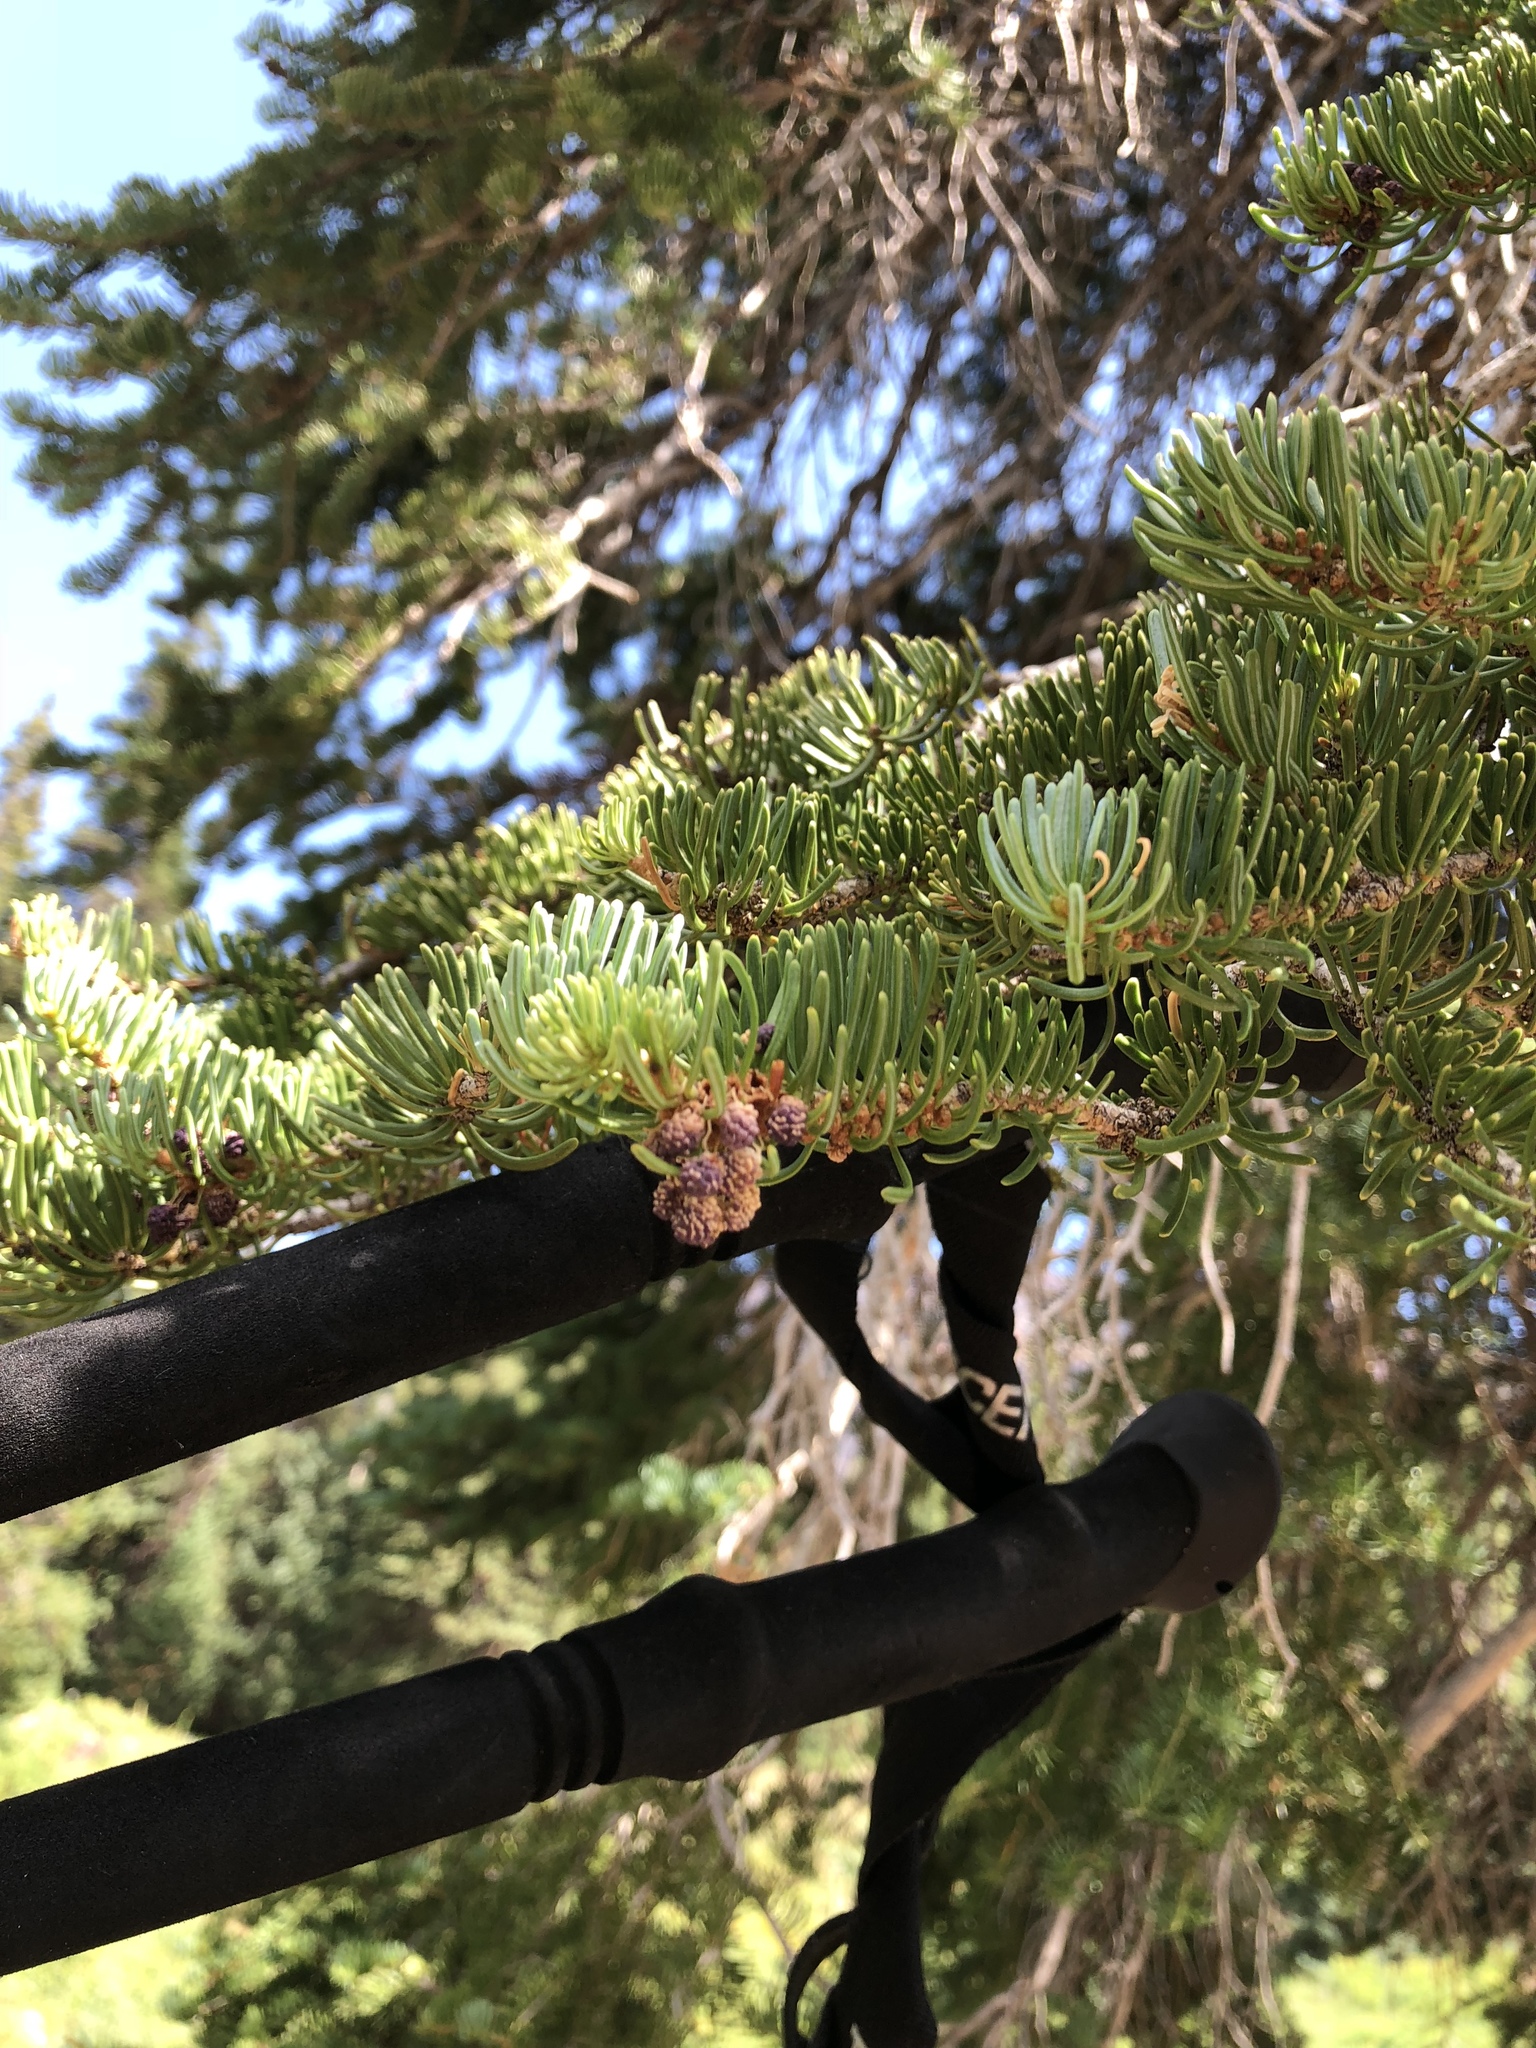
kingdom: Plantae
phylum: Tracheophyta
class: Pinopsida
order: Pinales
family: Pinaceae
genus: Abies
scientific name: Abies lasiocarpa
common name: Subalpine fir
